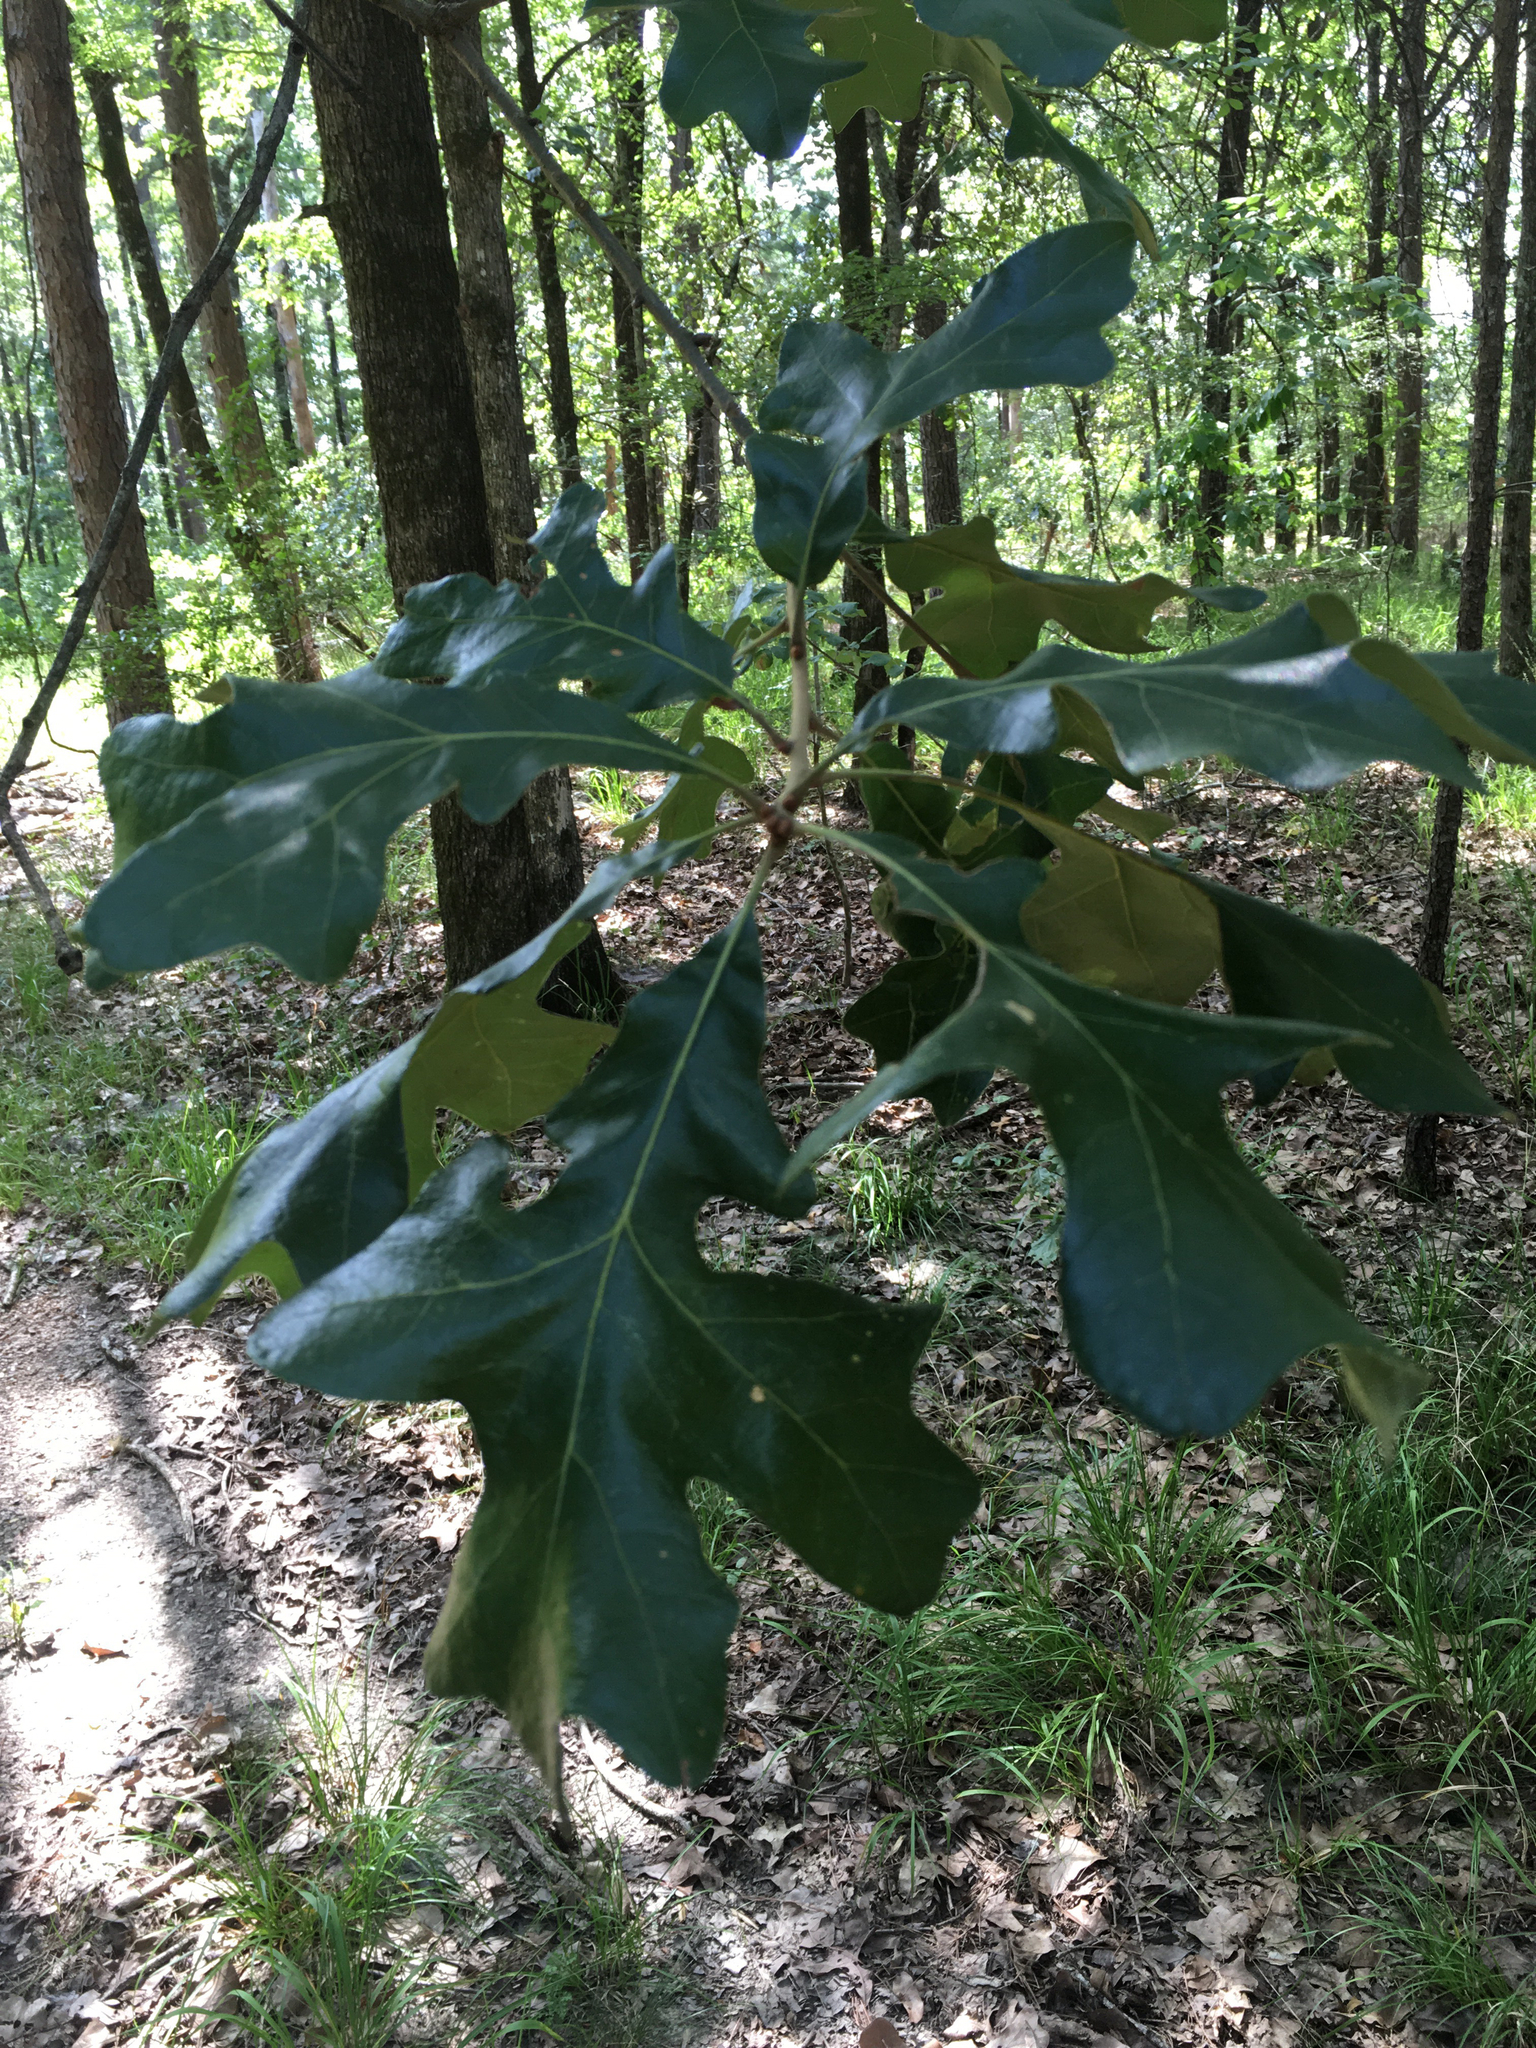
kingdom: Plantae
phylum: Tracheophyta
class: Magnoliopsida
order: Fagales
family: Fagaceae
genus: Quercus
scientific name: Quercus stellata
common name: Post oak
